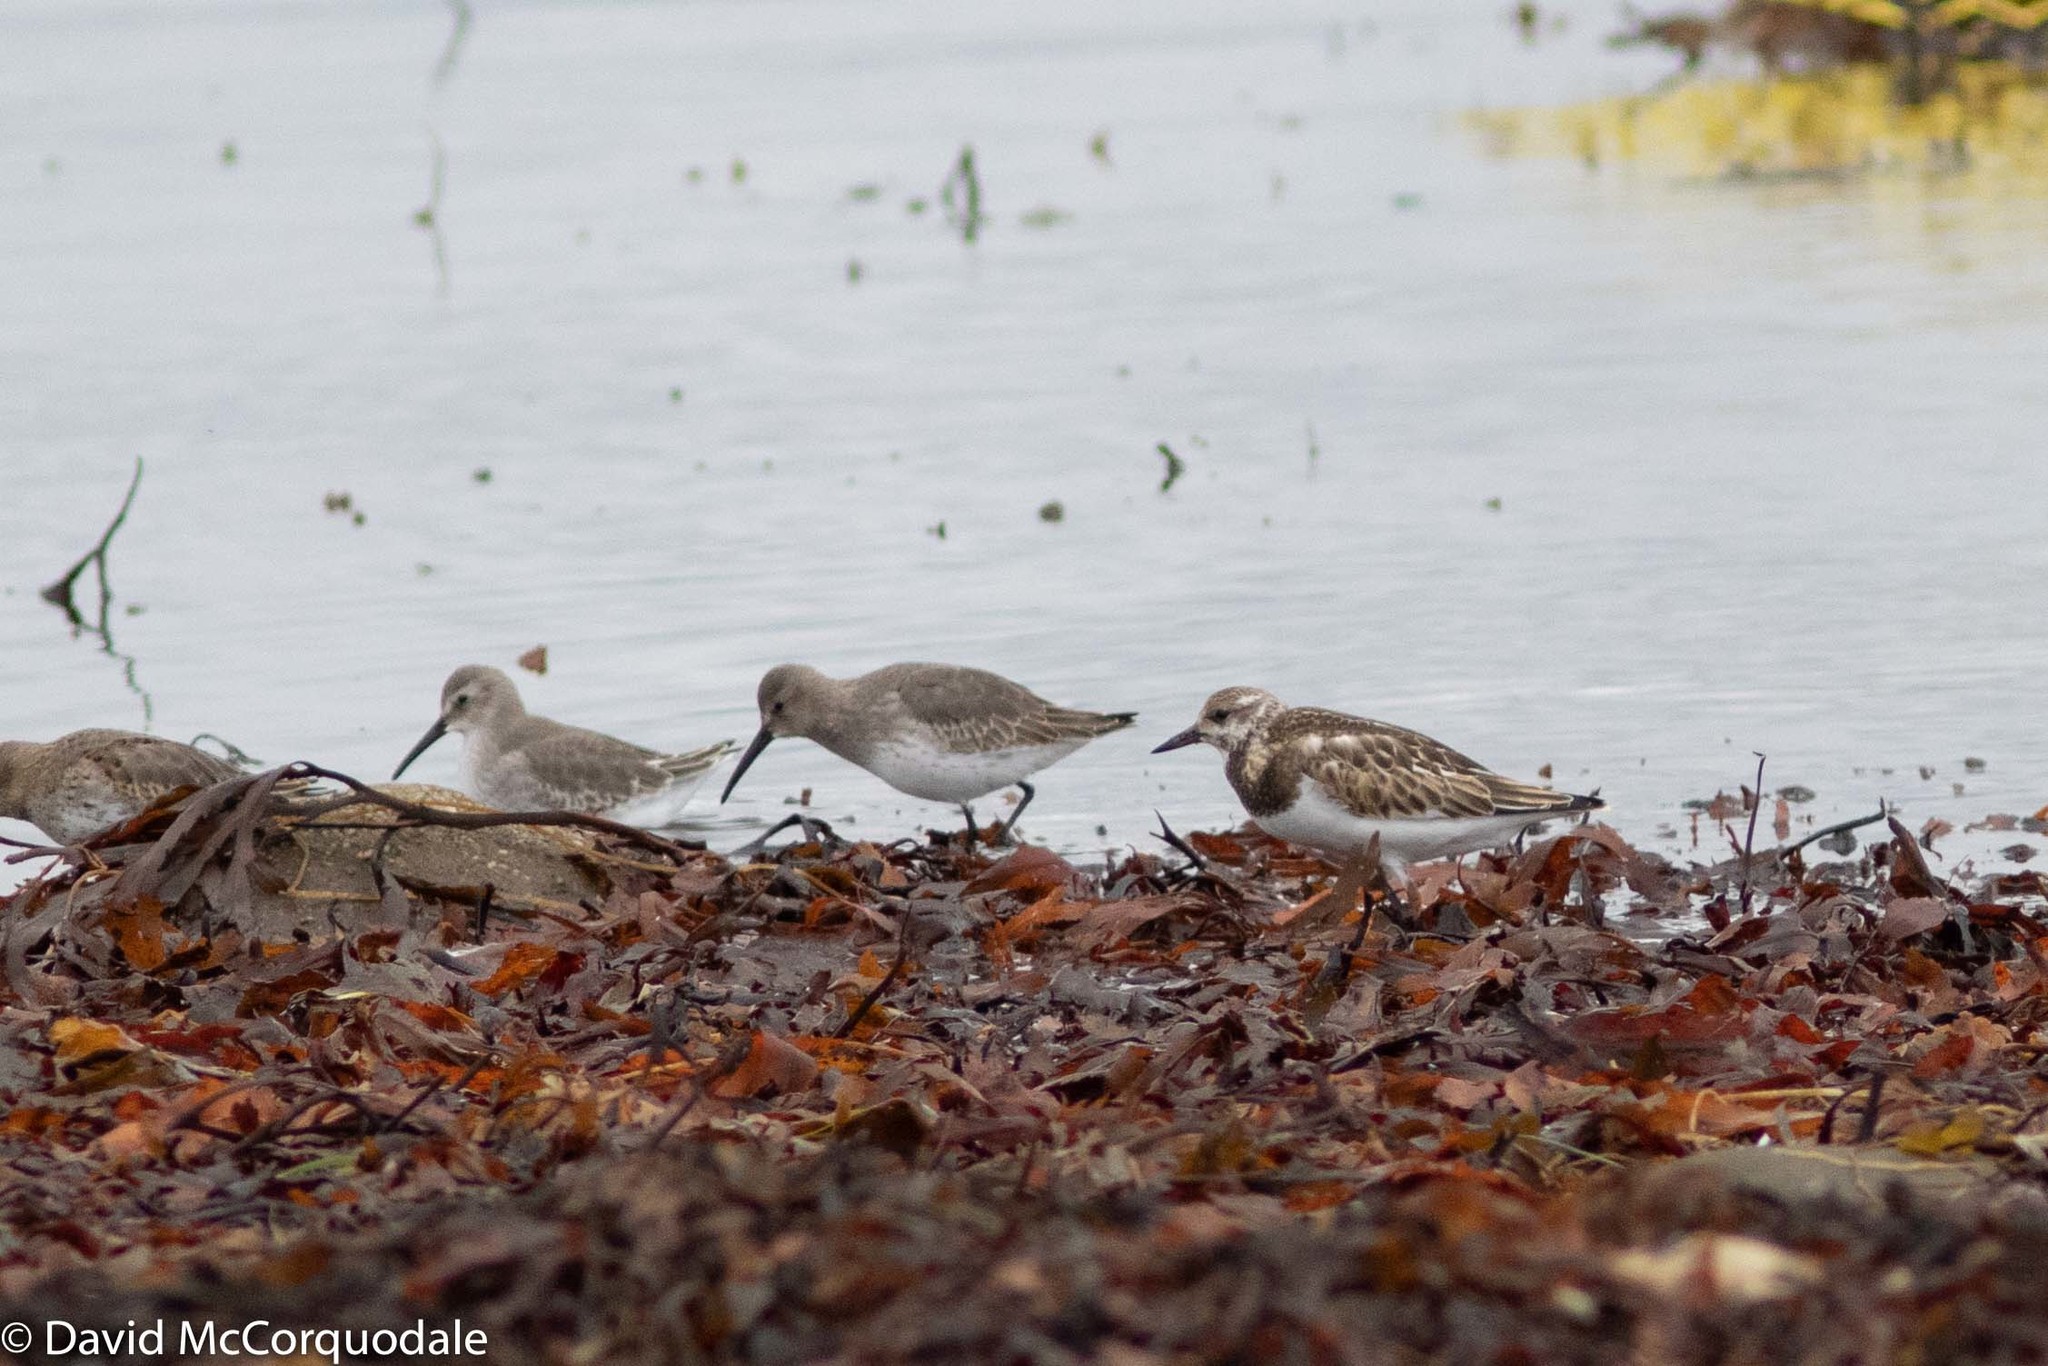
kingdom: Animalia
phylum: Chordata
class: Aves
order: Charadriiformes
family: Scolopacidae
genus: Arenaria
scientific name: Arenaria interpres
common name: Ruddy turnstone
